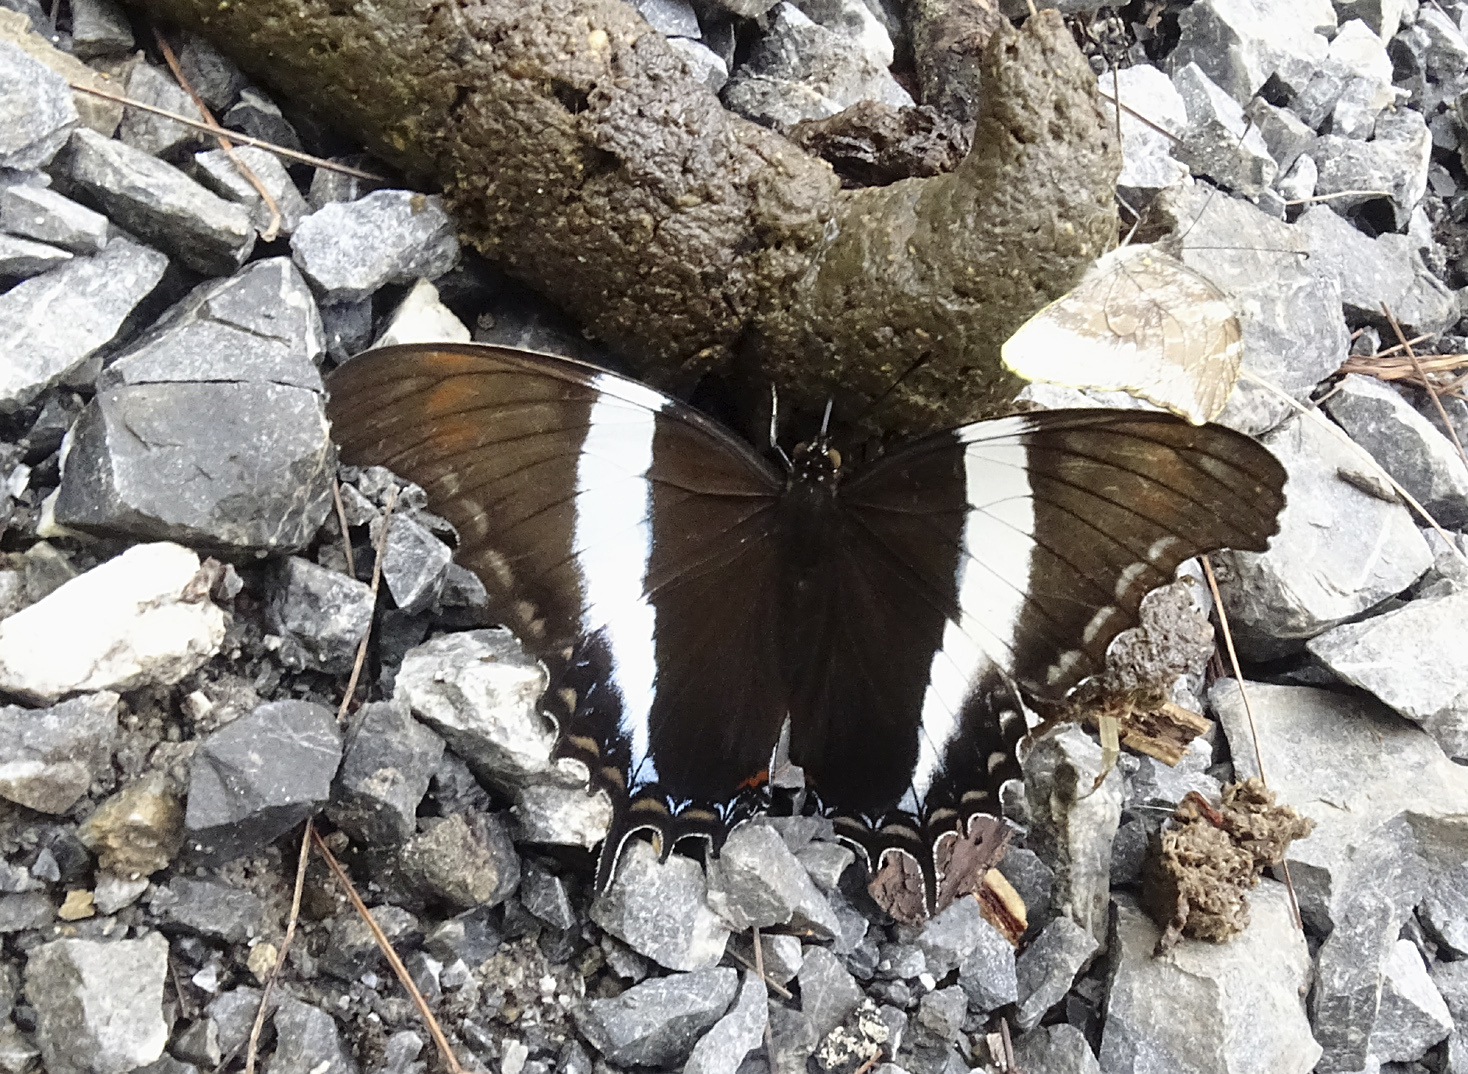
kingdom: Animalia
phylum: Arthropoda
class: Insecta
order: Lepidoptera
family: Nymphalidae
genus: Siproeta
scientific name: Siproeta superba
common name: Broad-banded page
